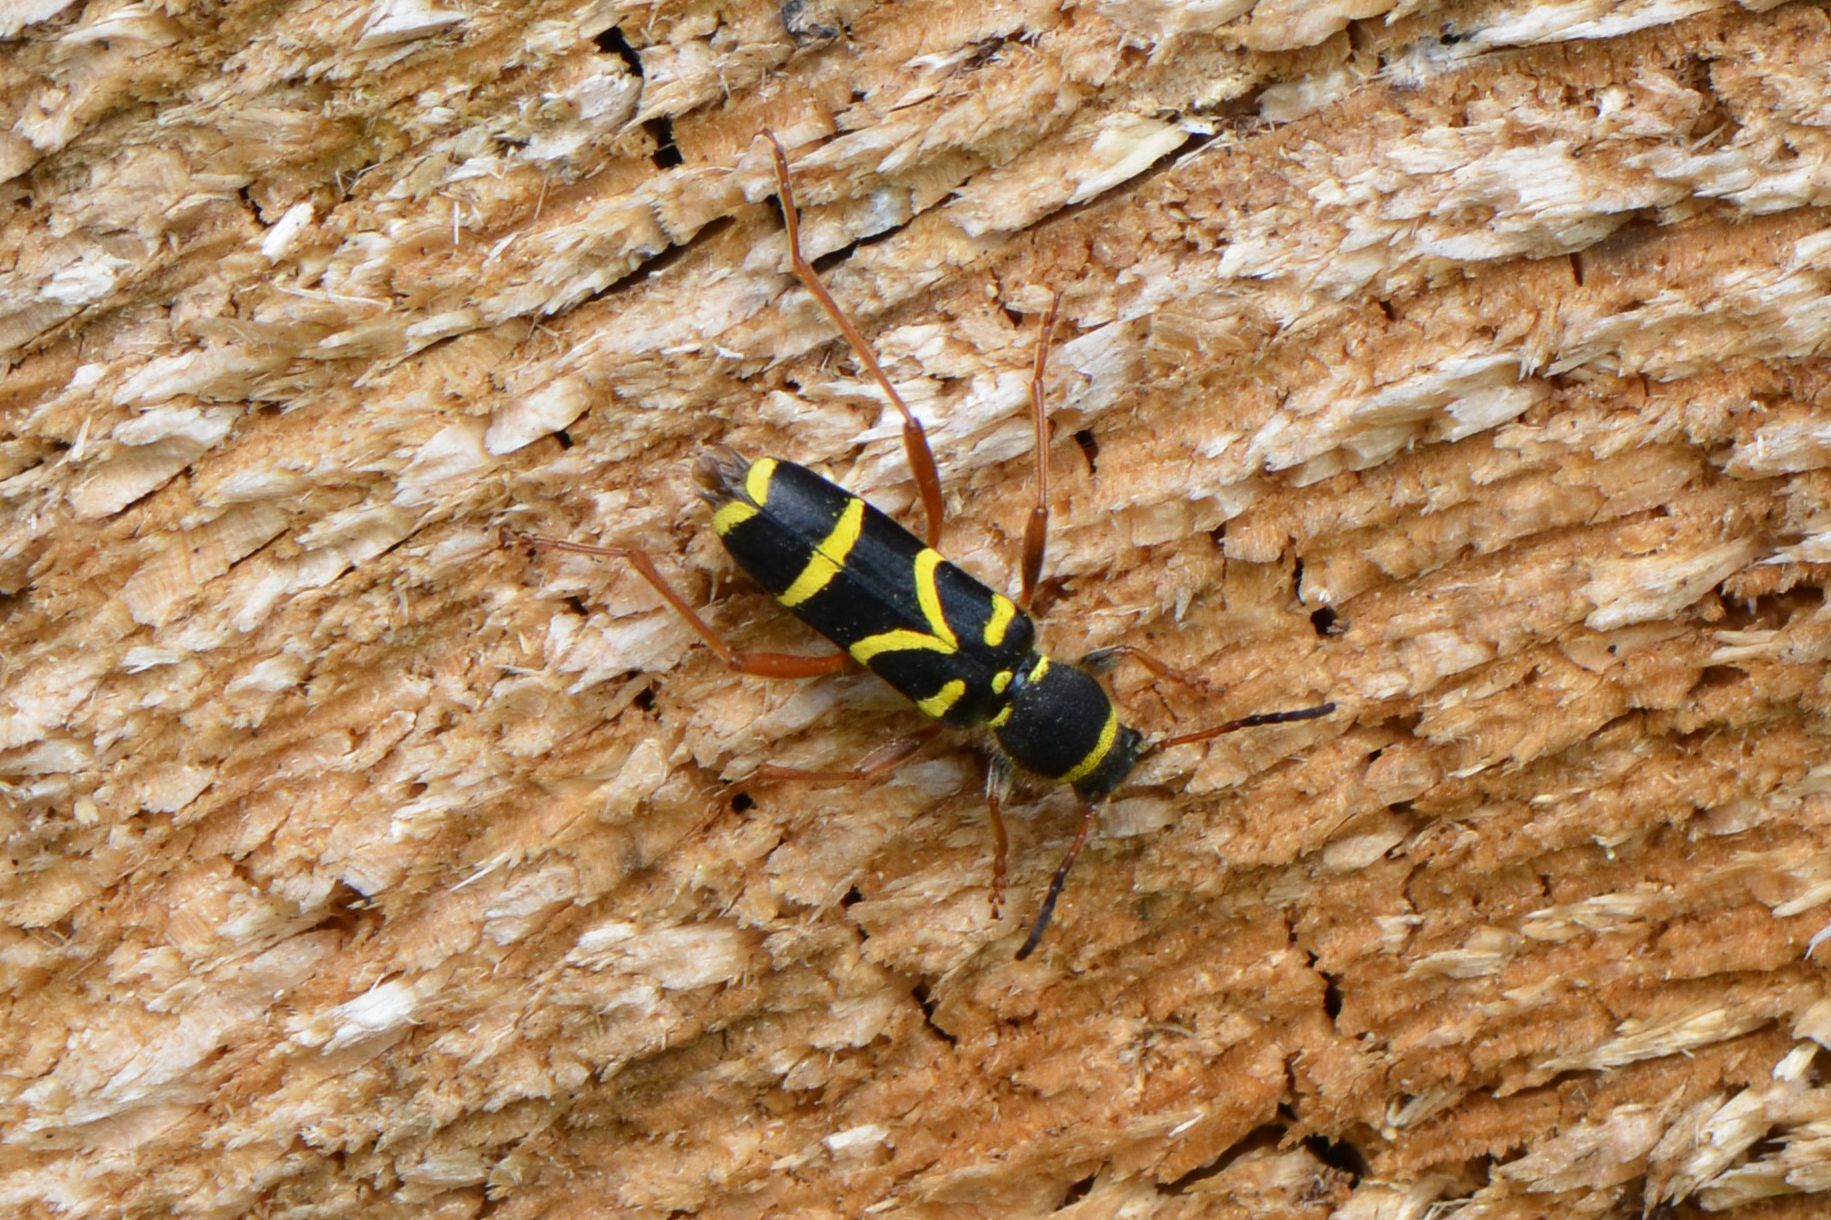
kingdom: Animalia
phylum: Arthropoda
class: Insecta
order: Coleoptera
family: Cerambycidae
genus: Clytus
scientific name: Clytus arietis
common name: Wasp beetle
